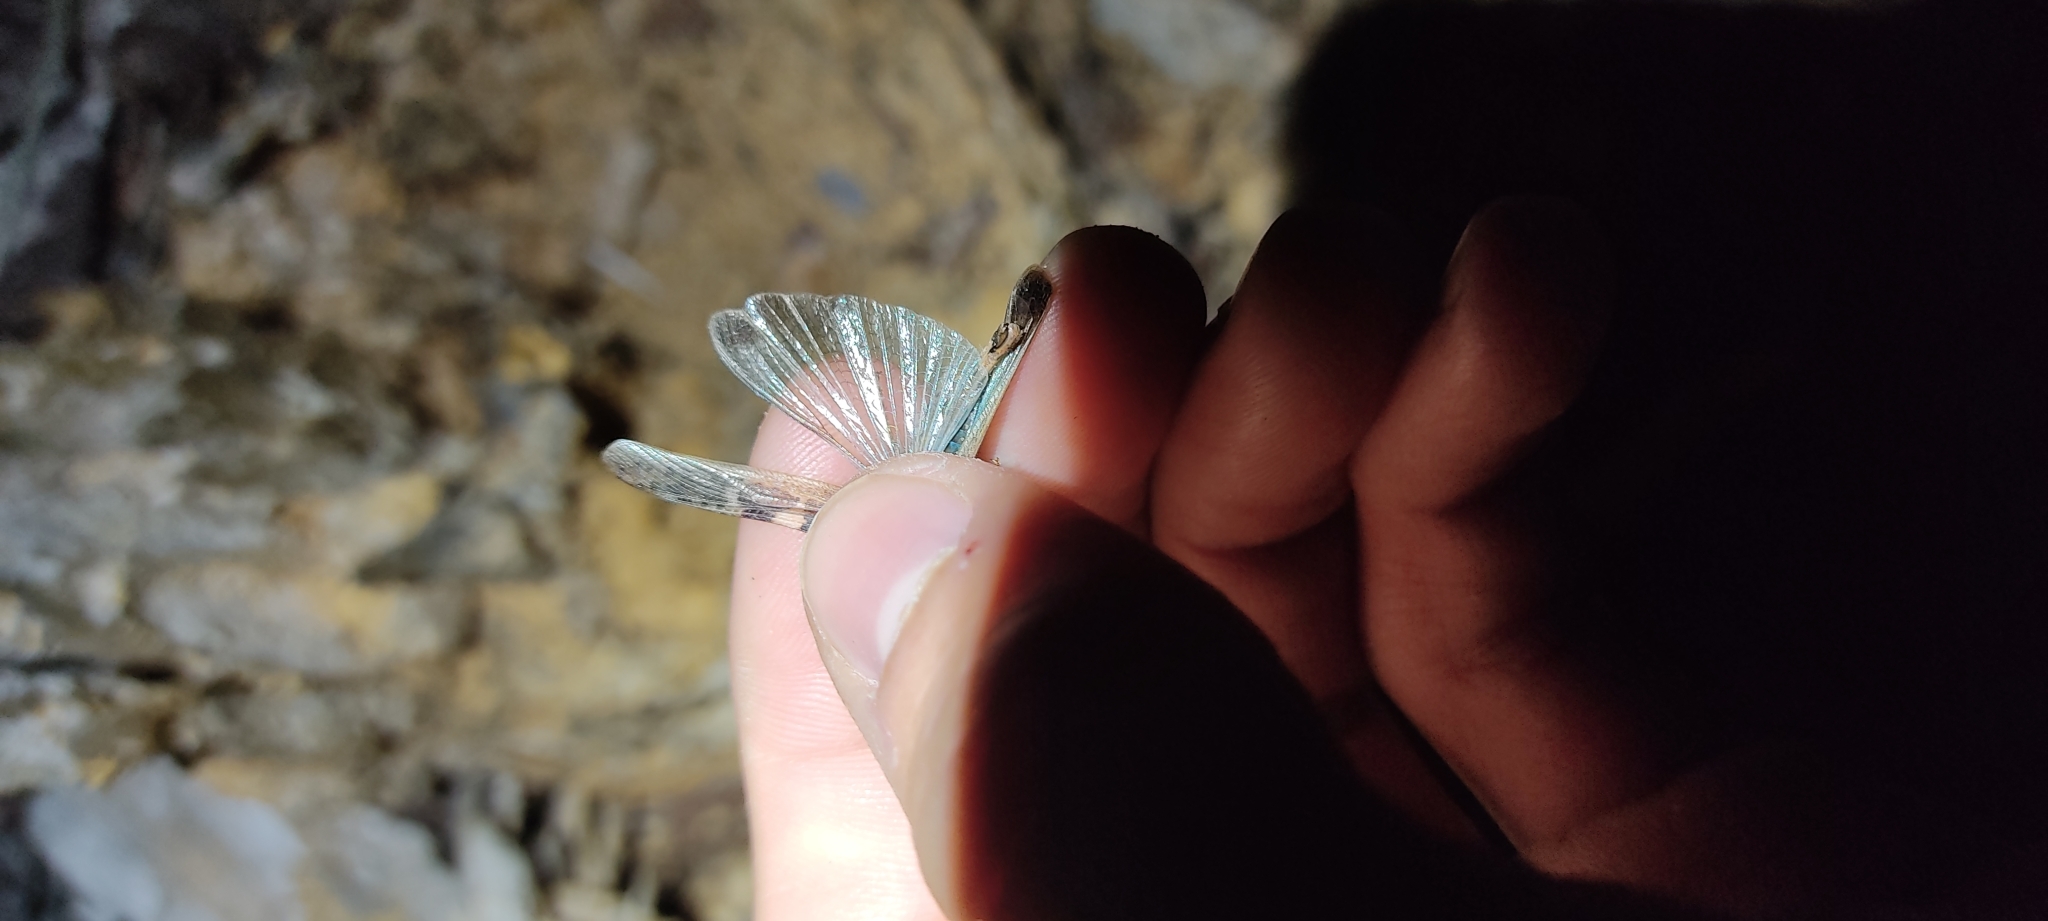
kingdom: Animalia
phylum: Arthropoda
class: Insecta
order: Orthoptera
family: Acrididae
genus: Aiolopus
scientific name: Aiolopus strepens
